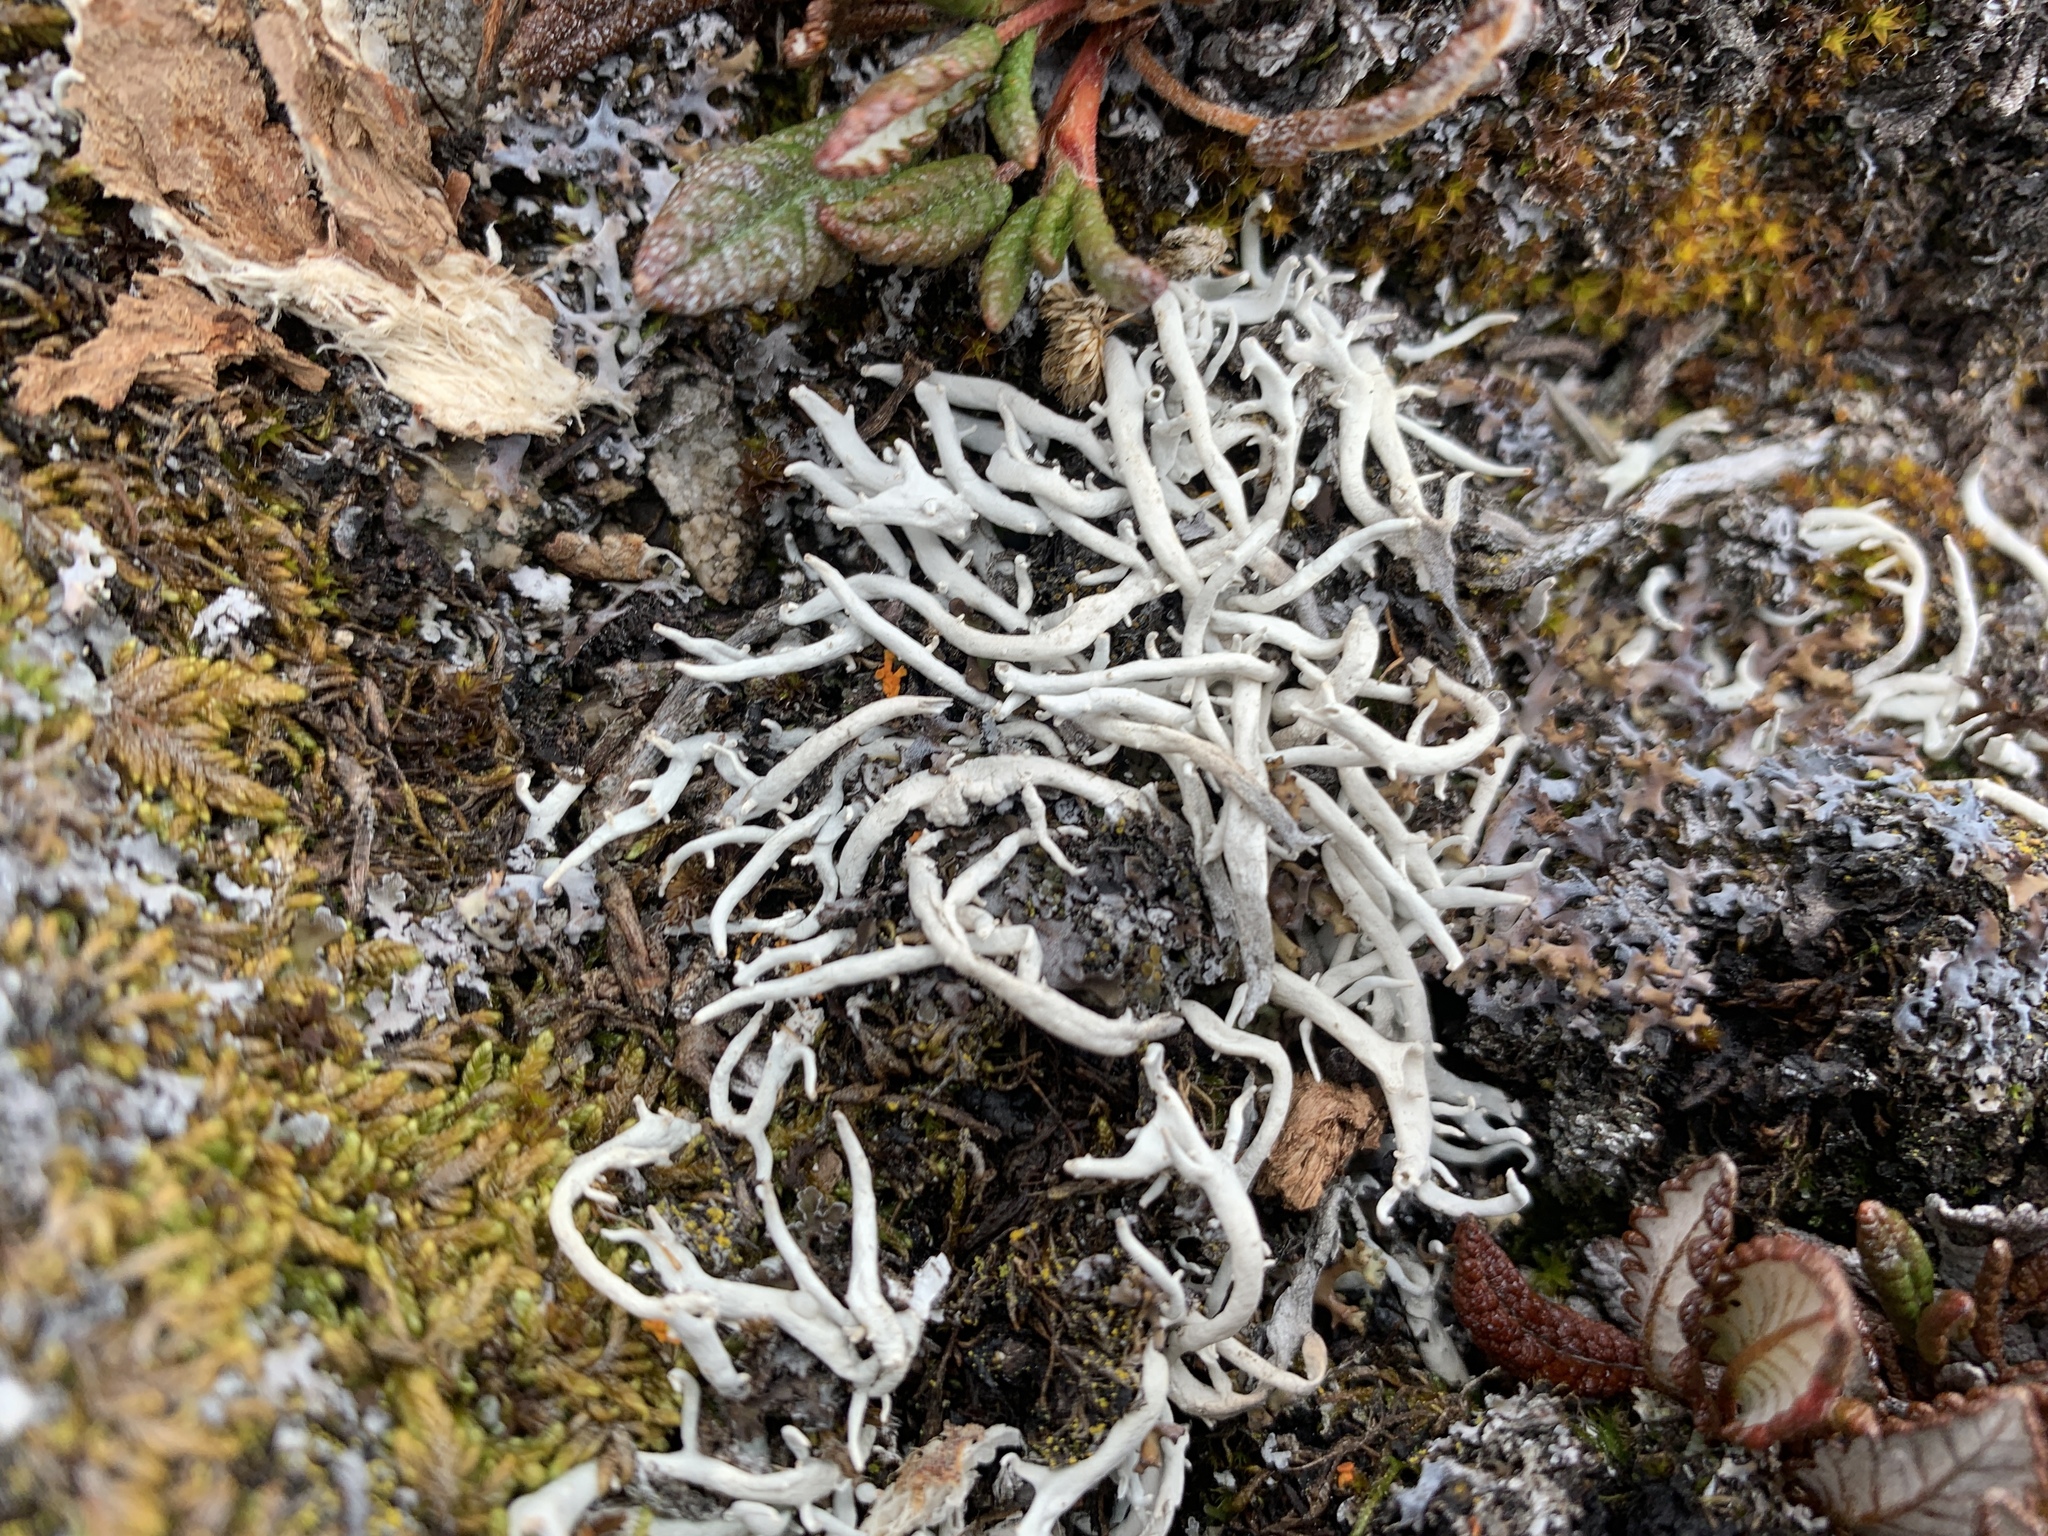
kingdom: Fungi
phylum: Ascomycota
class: Lecanoromycetes
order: Pertusariales
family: Icmadophilaceae
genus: Thamnolia
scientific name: Thamnolia vermicularis
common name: Whiteworm lichen
